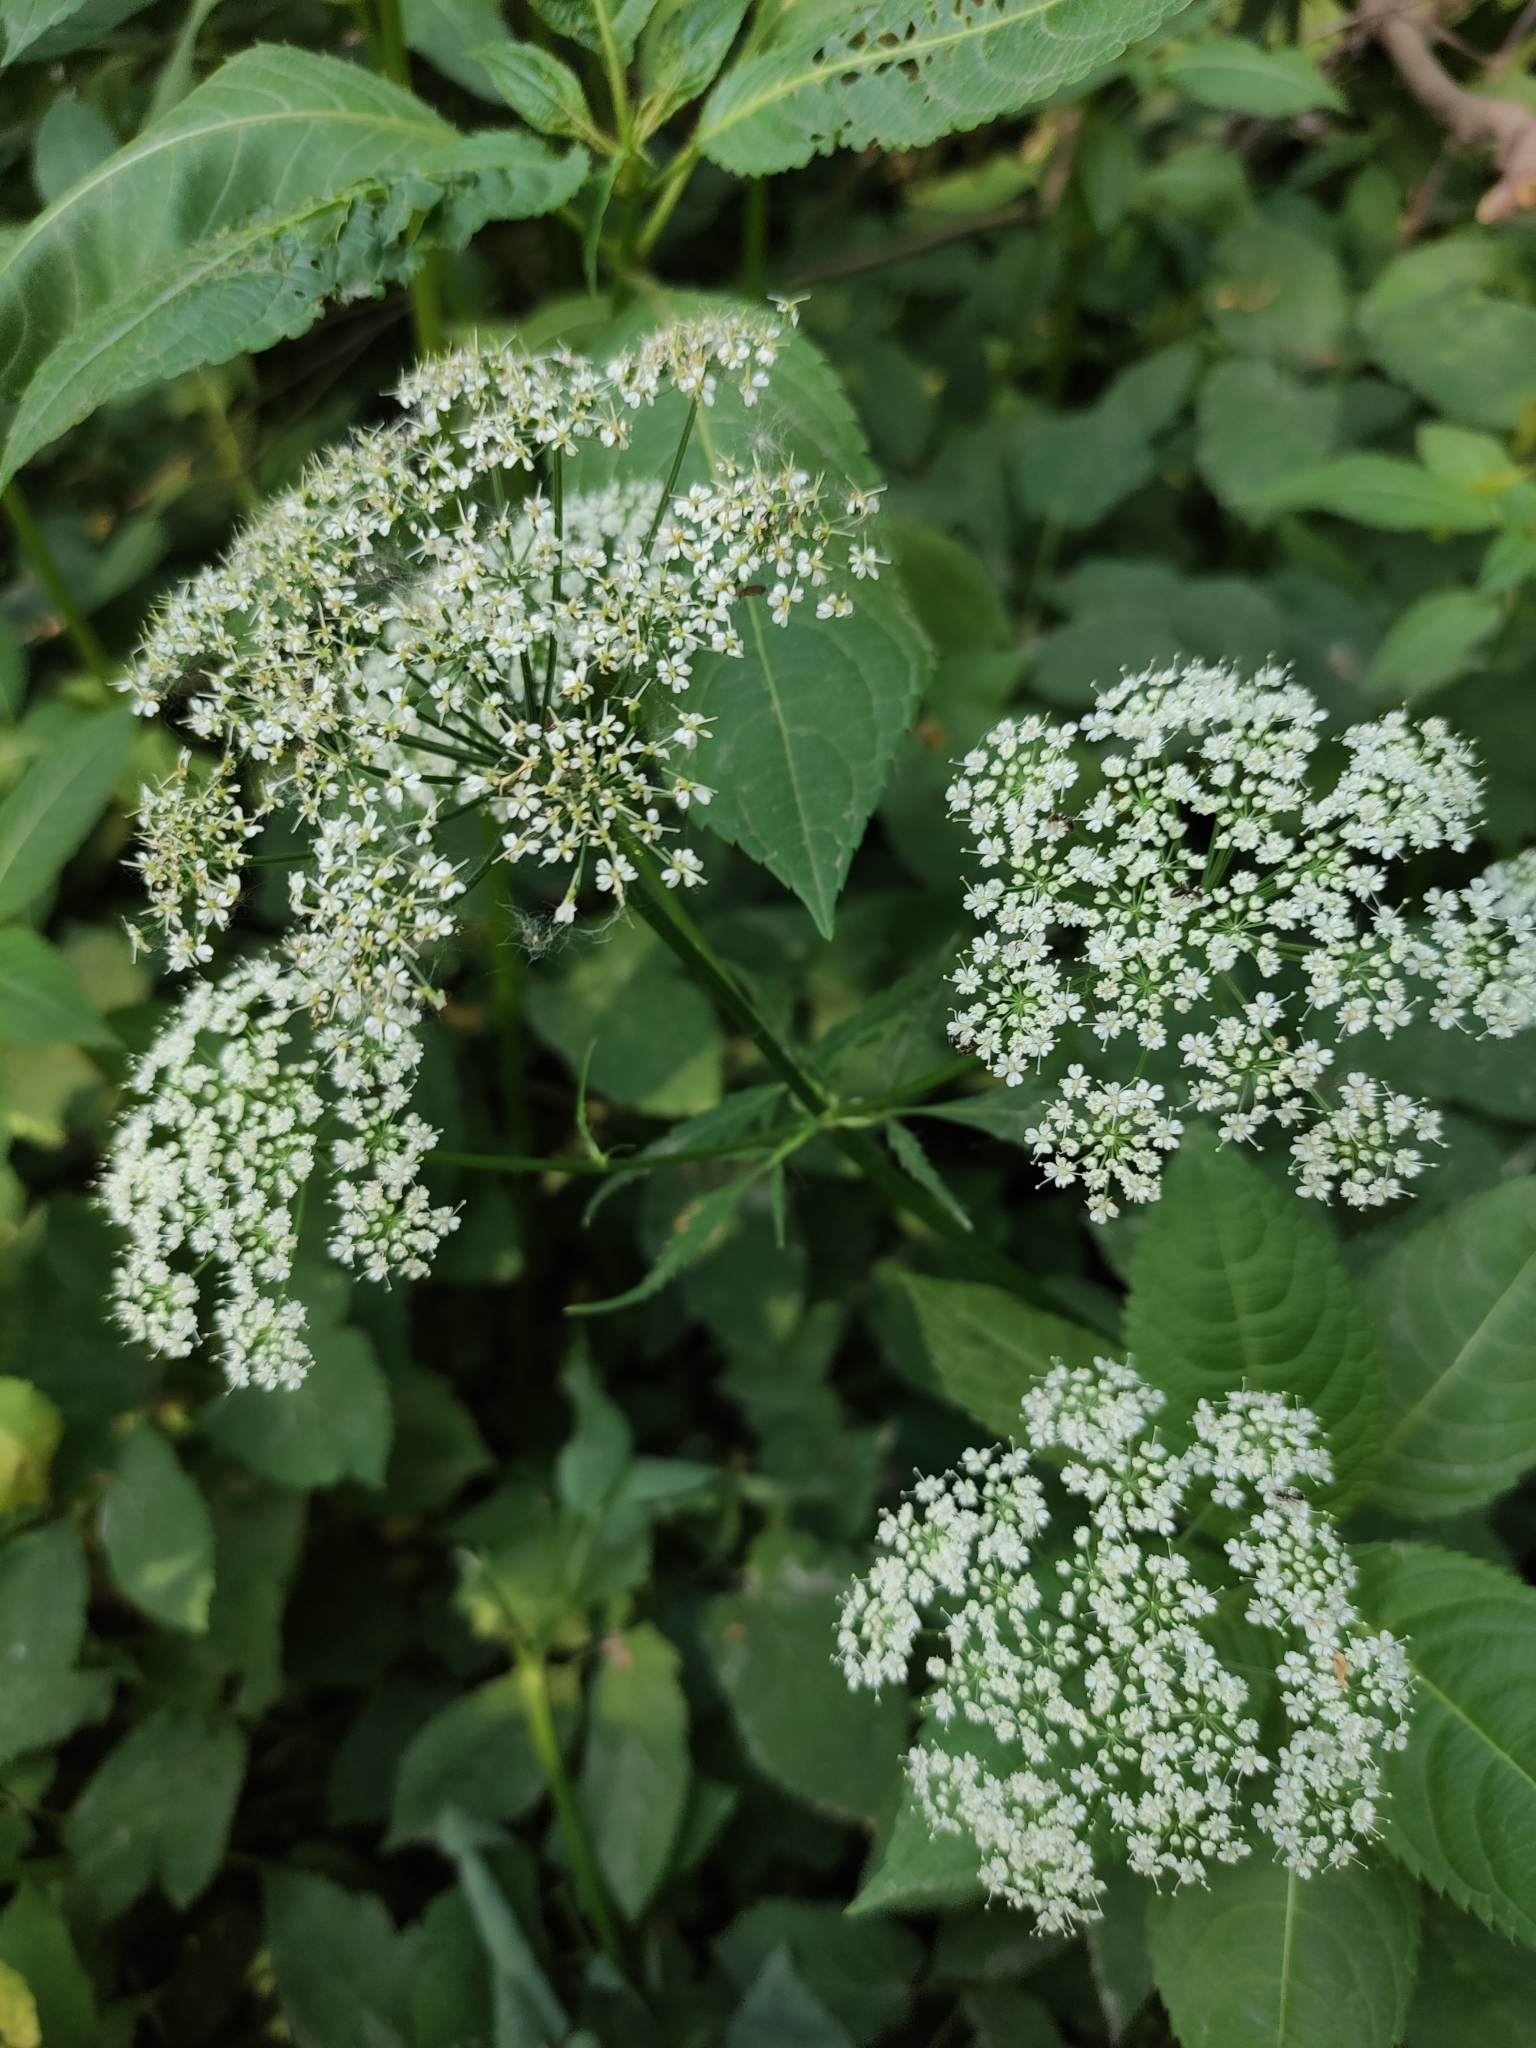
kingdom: Plantae
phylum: Tracheophyta
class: Magnoliopsida
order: Apiales
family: Apiaceae
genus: Aegopodium
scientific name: Aegopodium podagraria
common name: Ground-elder
